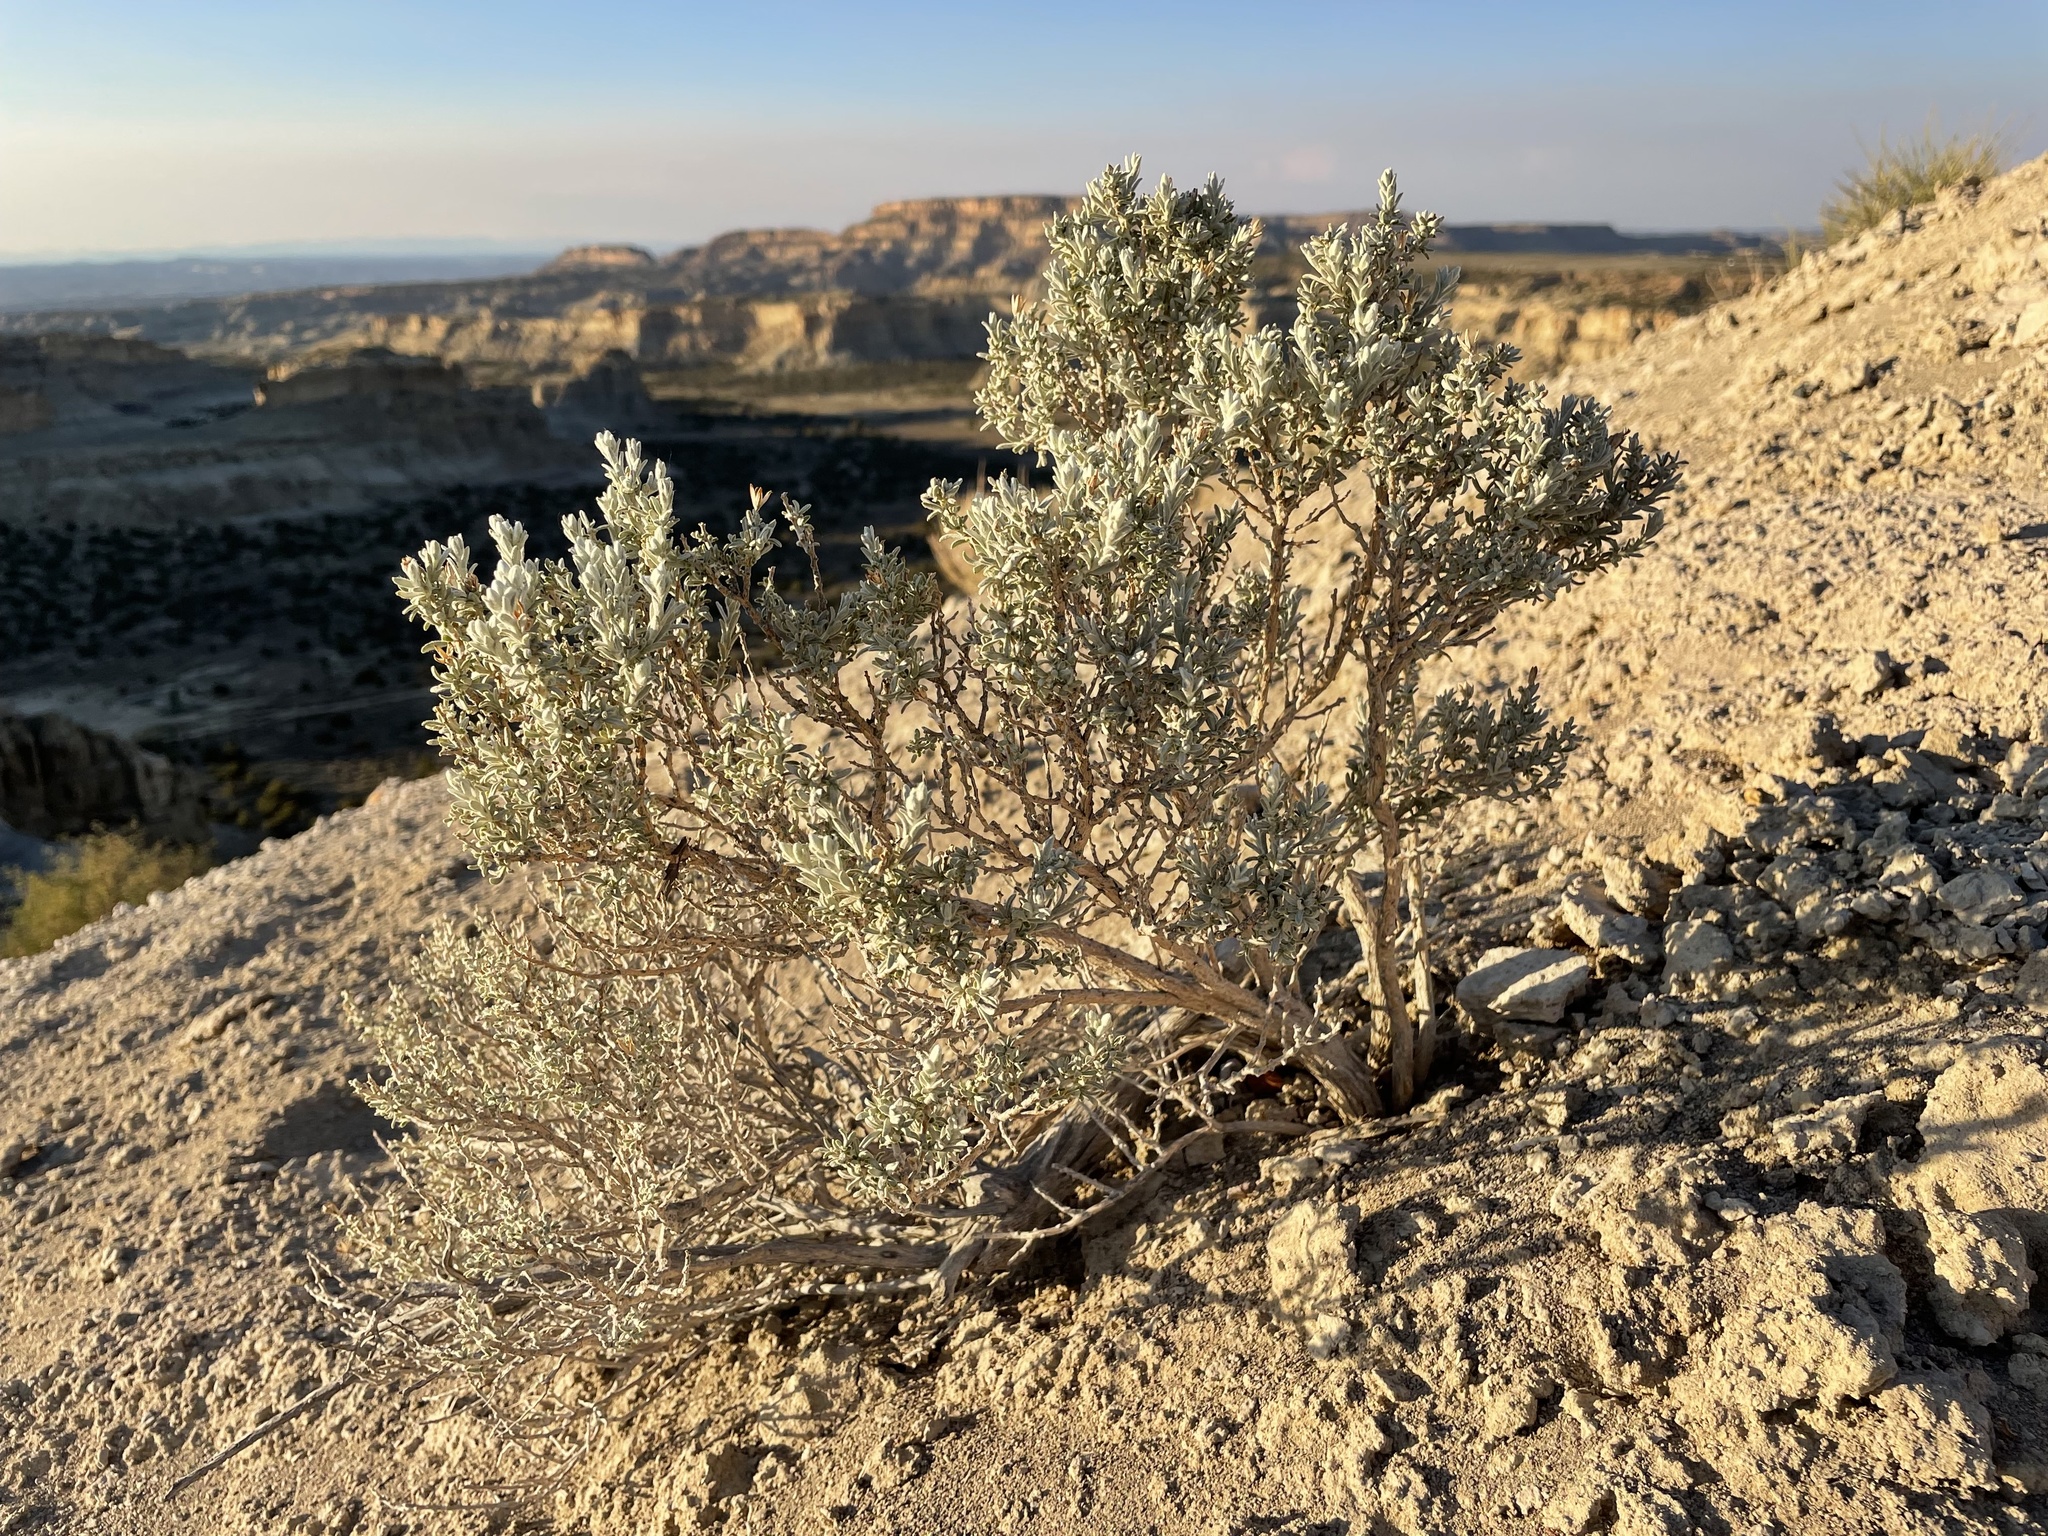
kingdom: Plantae
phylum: Tracheophyta
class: Magnoliopsida
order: Asterales
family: Asteraceae
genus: Tetradymia
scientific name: Tetradymia canescens
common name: Spineless horsebrush
